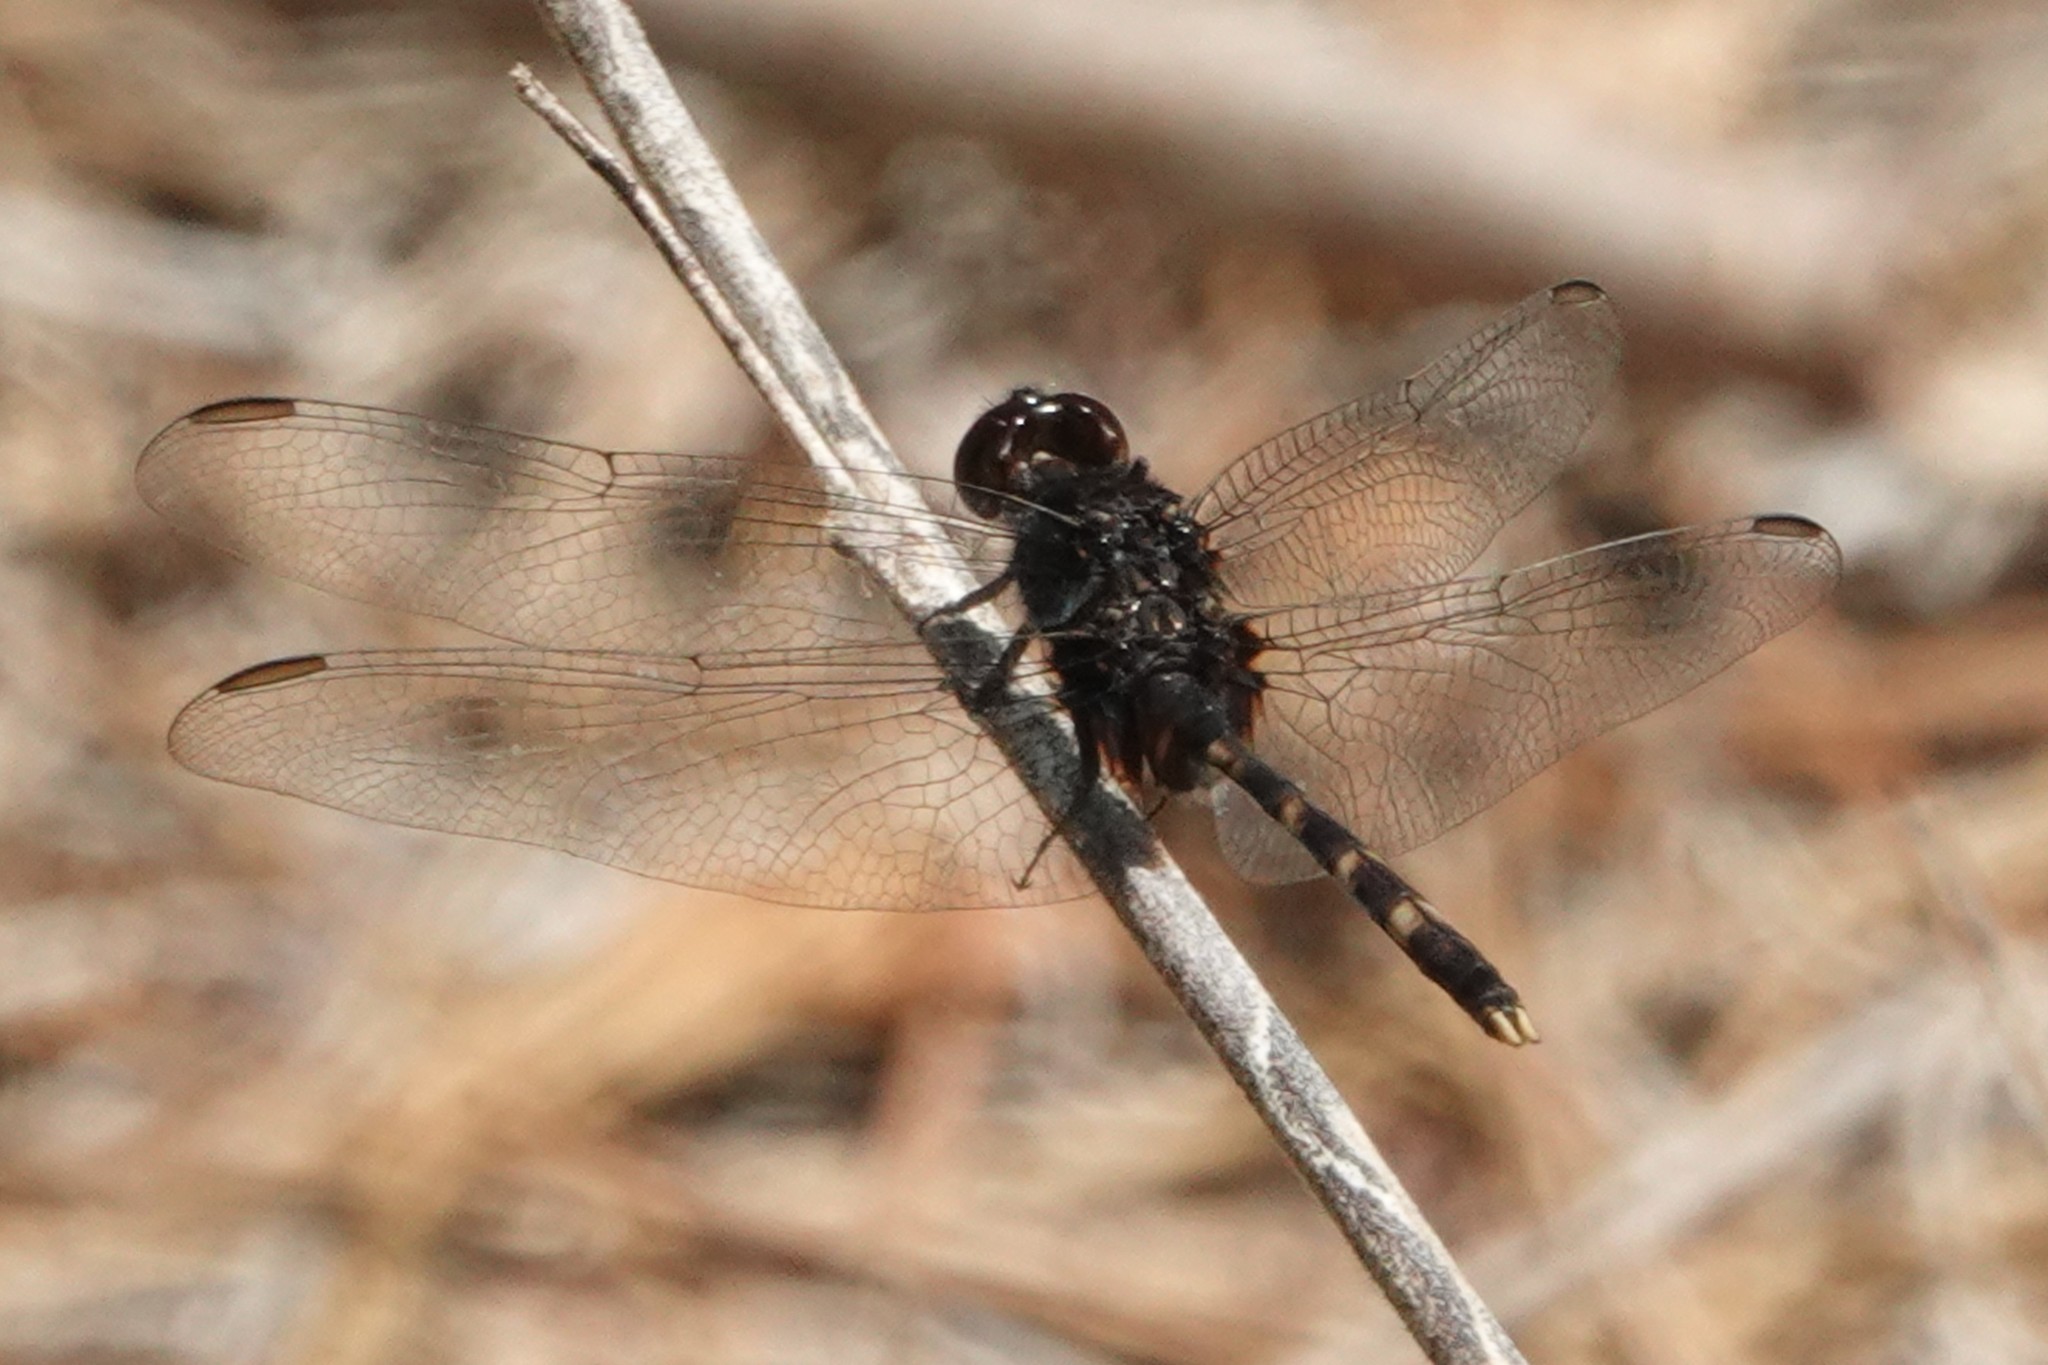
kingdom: Animalia
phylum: Arthropoda
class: Insecta
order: Odonata
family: Libellulidae
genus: Erythemis
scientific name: Erythemis plebeja
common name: Pin-tailed pondhawk
